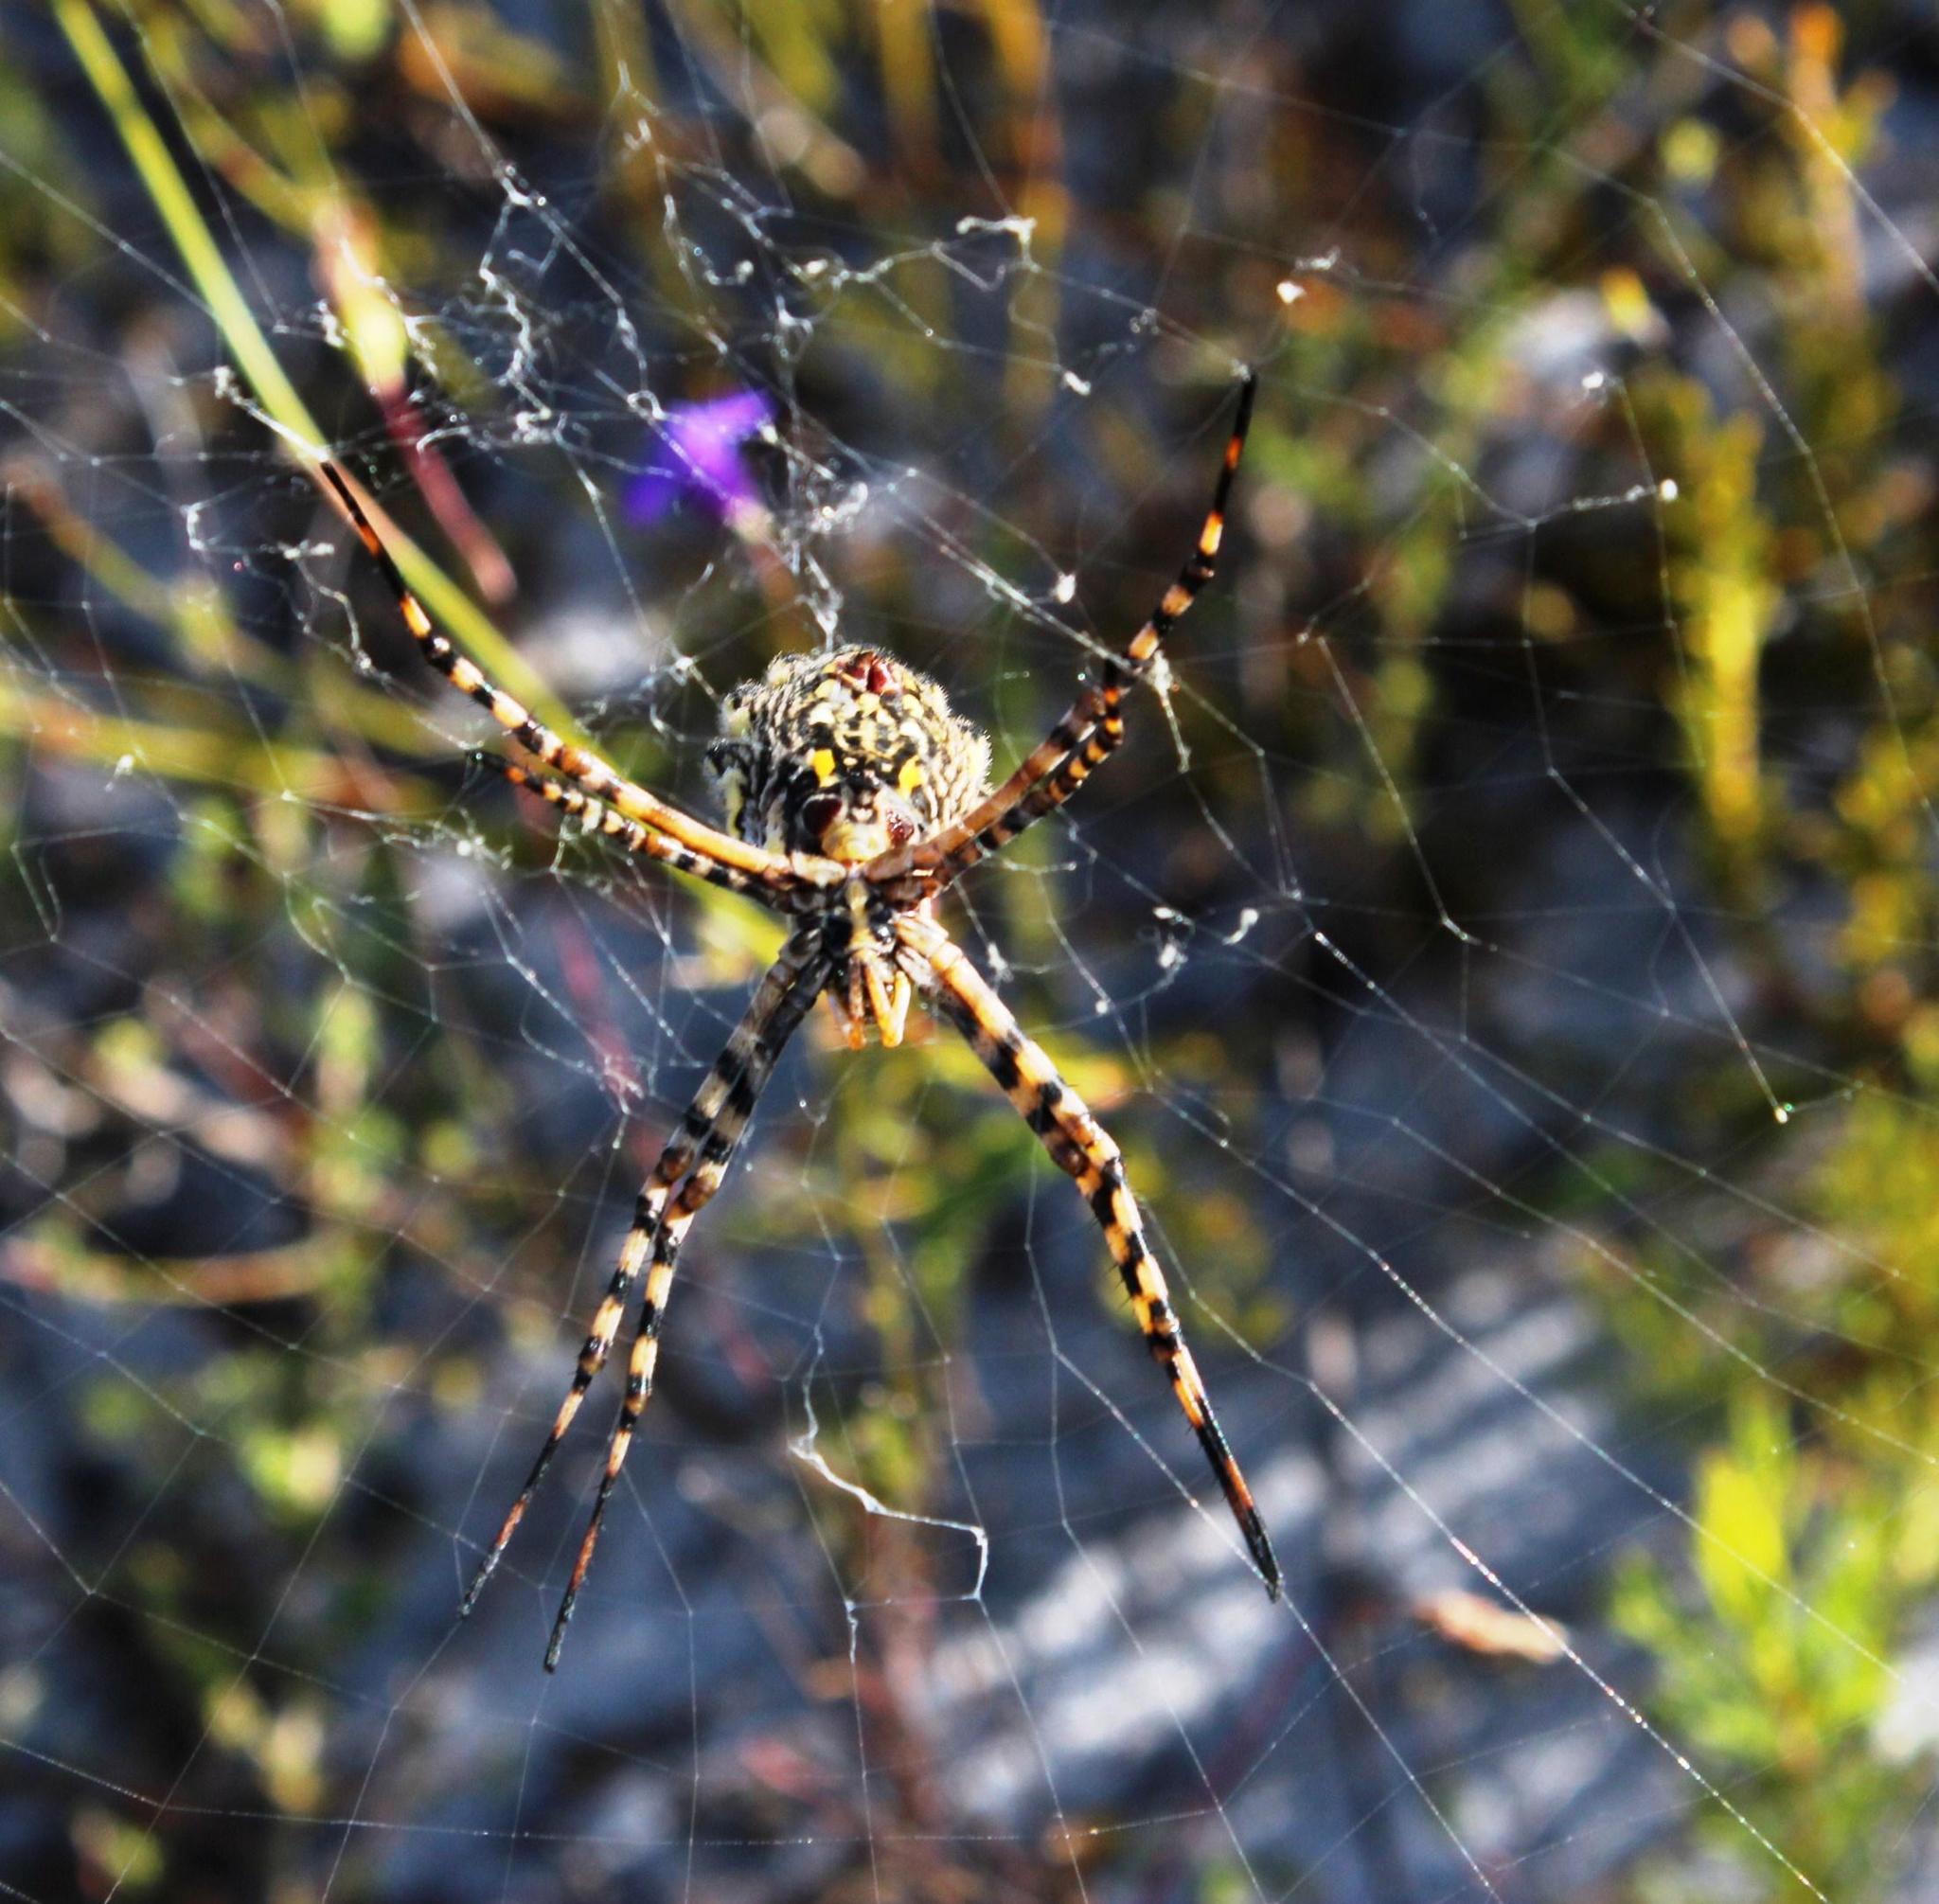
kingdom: Animalia
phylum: Arthropoda
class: Arachnida
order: Araneae
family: Araneidae
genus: Argiope
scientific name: Argiope australis
